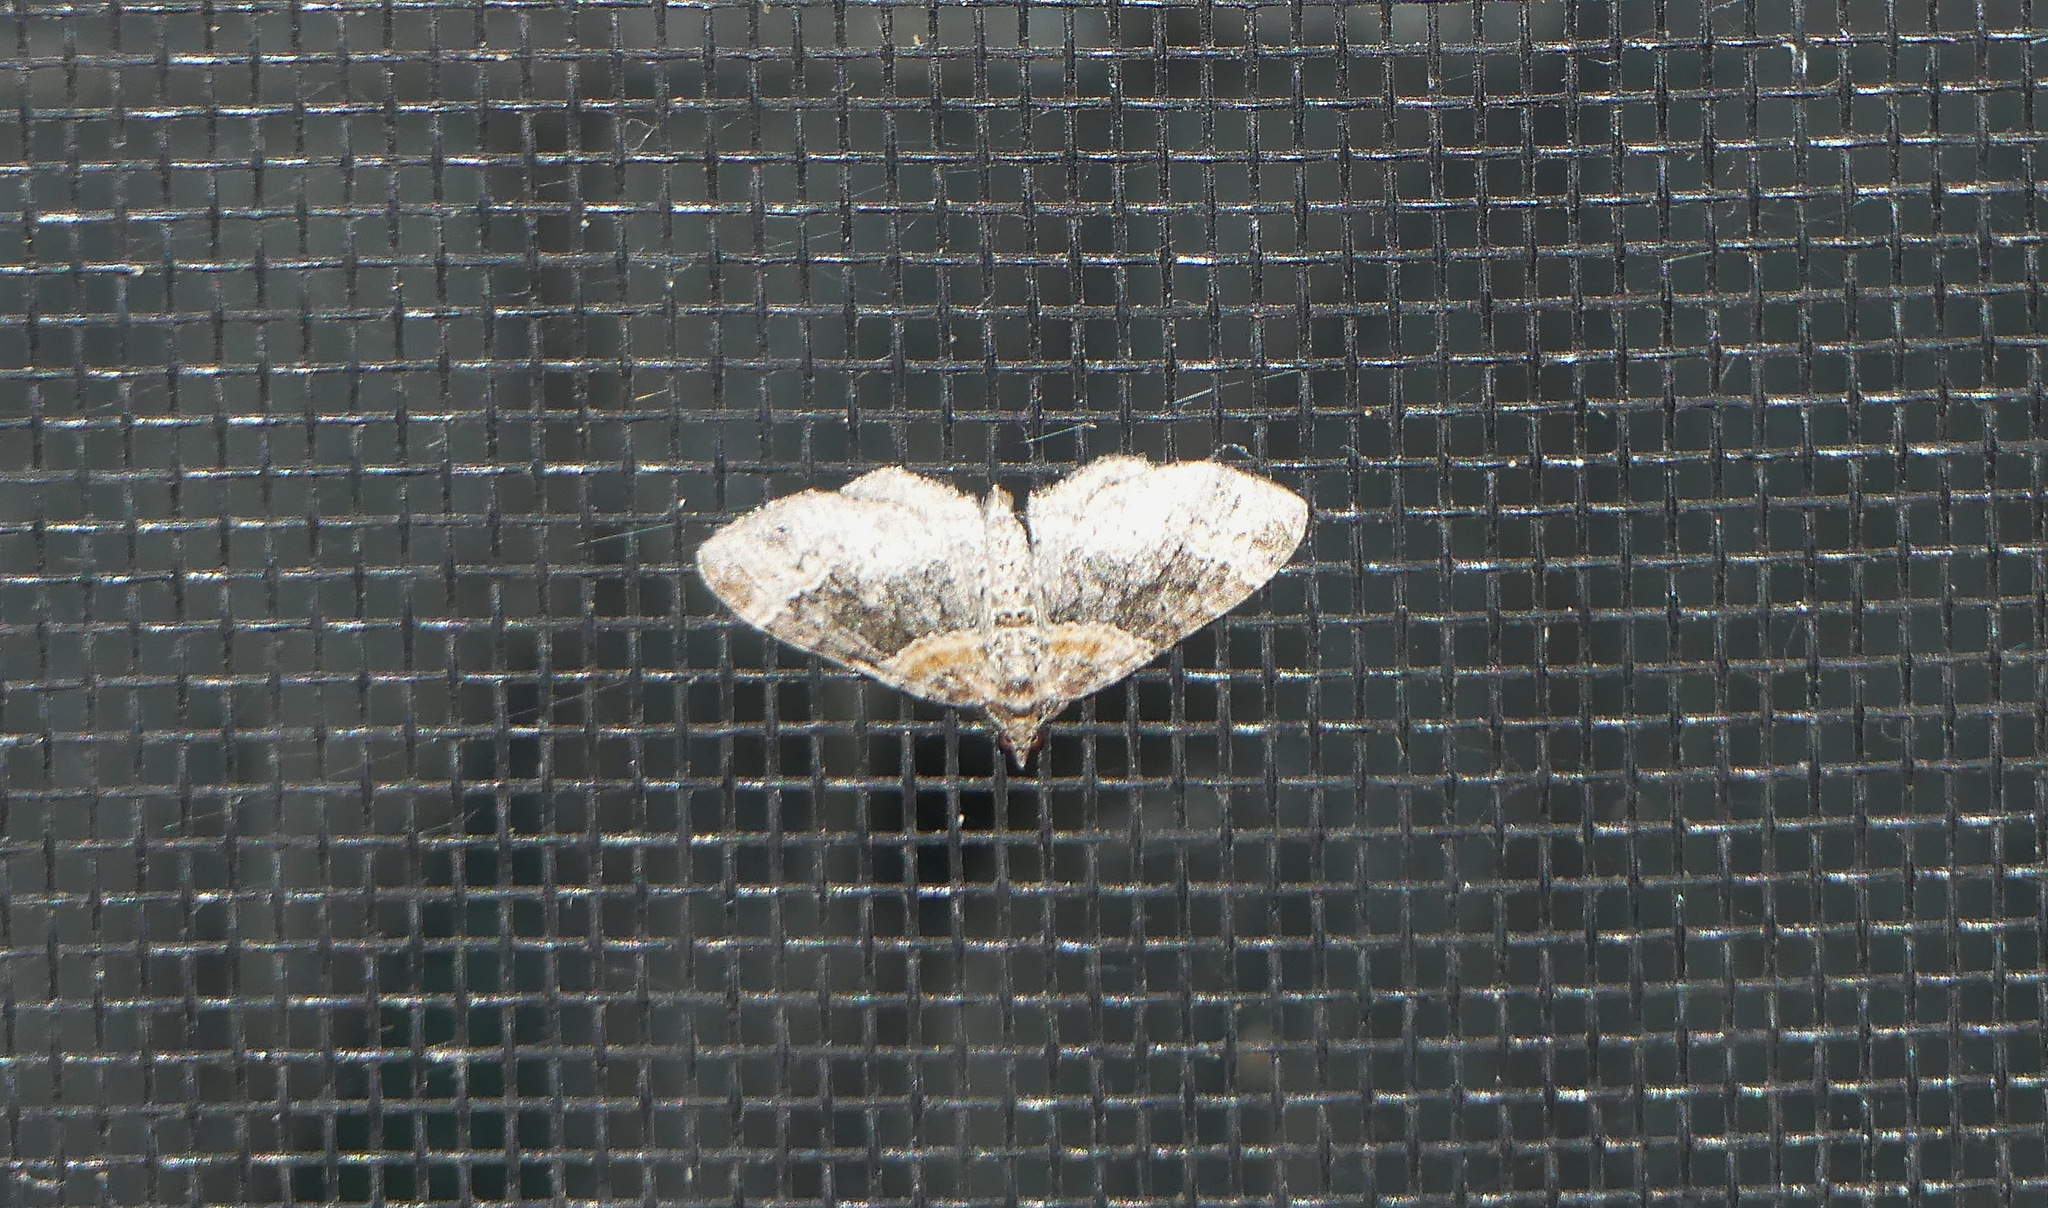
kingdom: Animalia
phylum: Arthropoda
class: Insecta
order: Lepidoptera
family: Geometridae
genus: Xanthorhoe
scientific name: Xanthorhoe ferrugata
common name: Dark-barred twin-spot carpet
